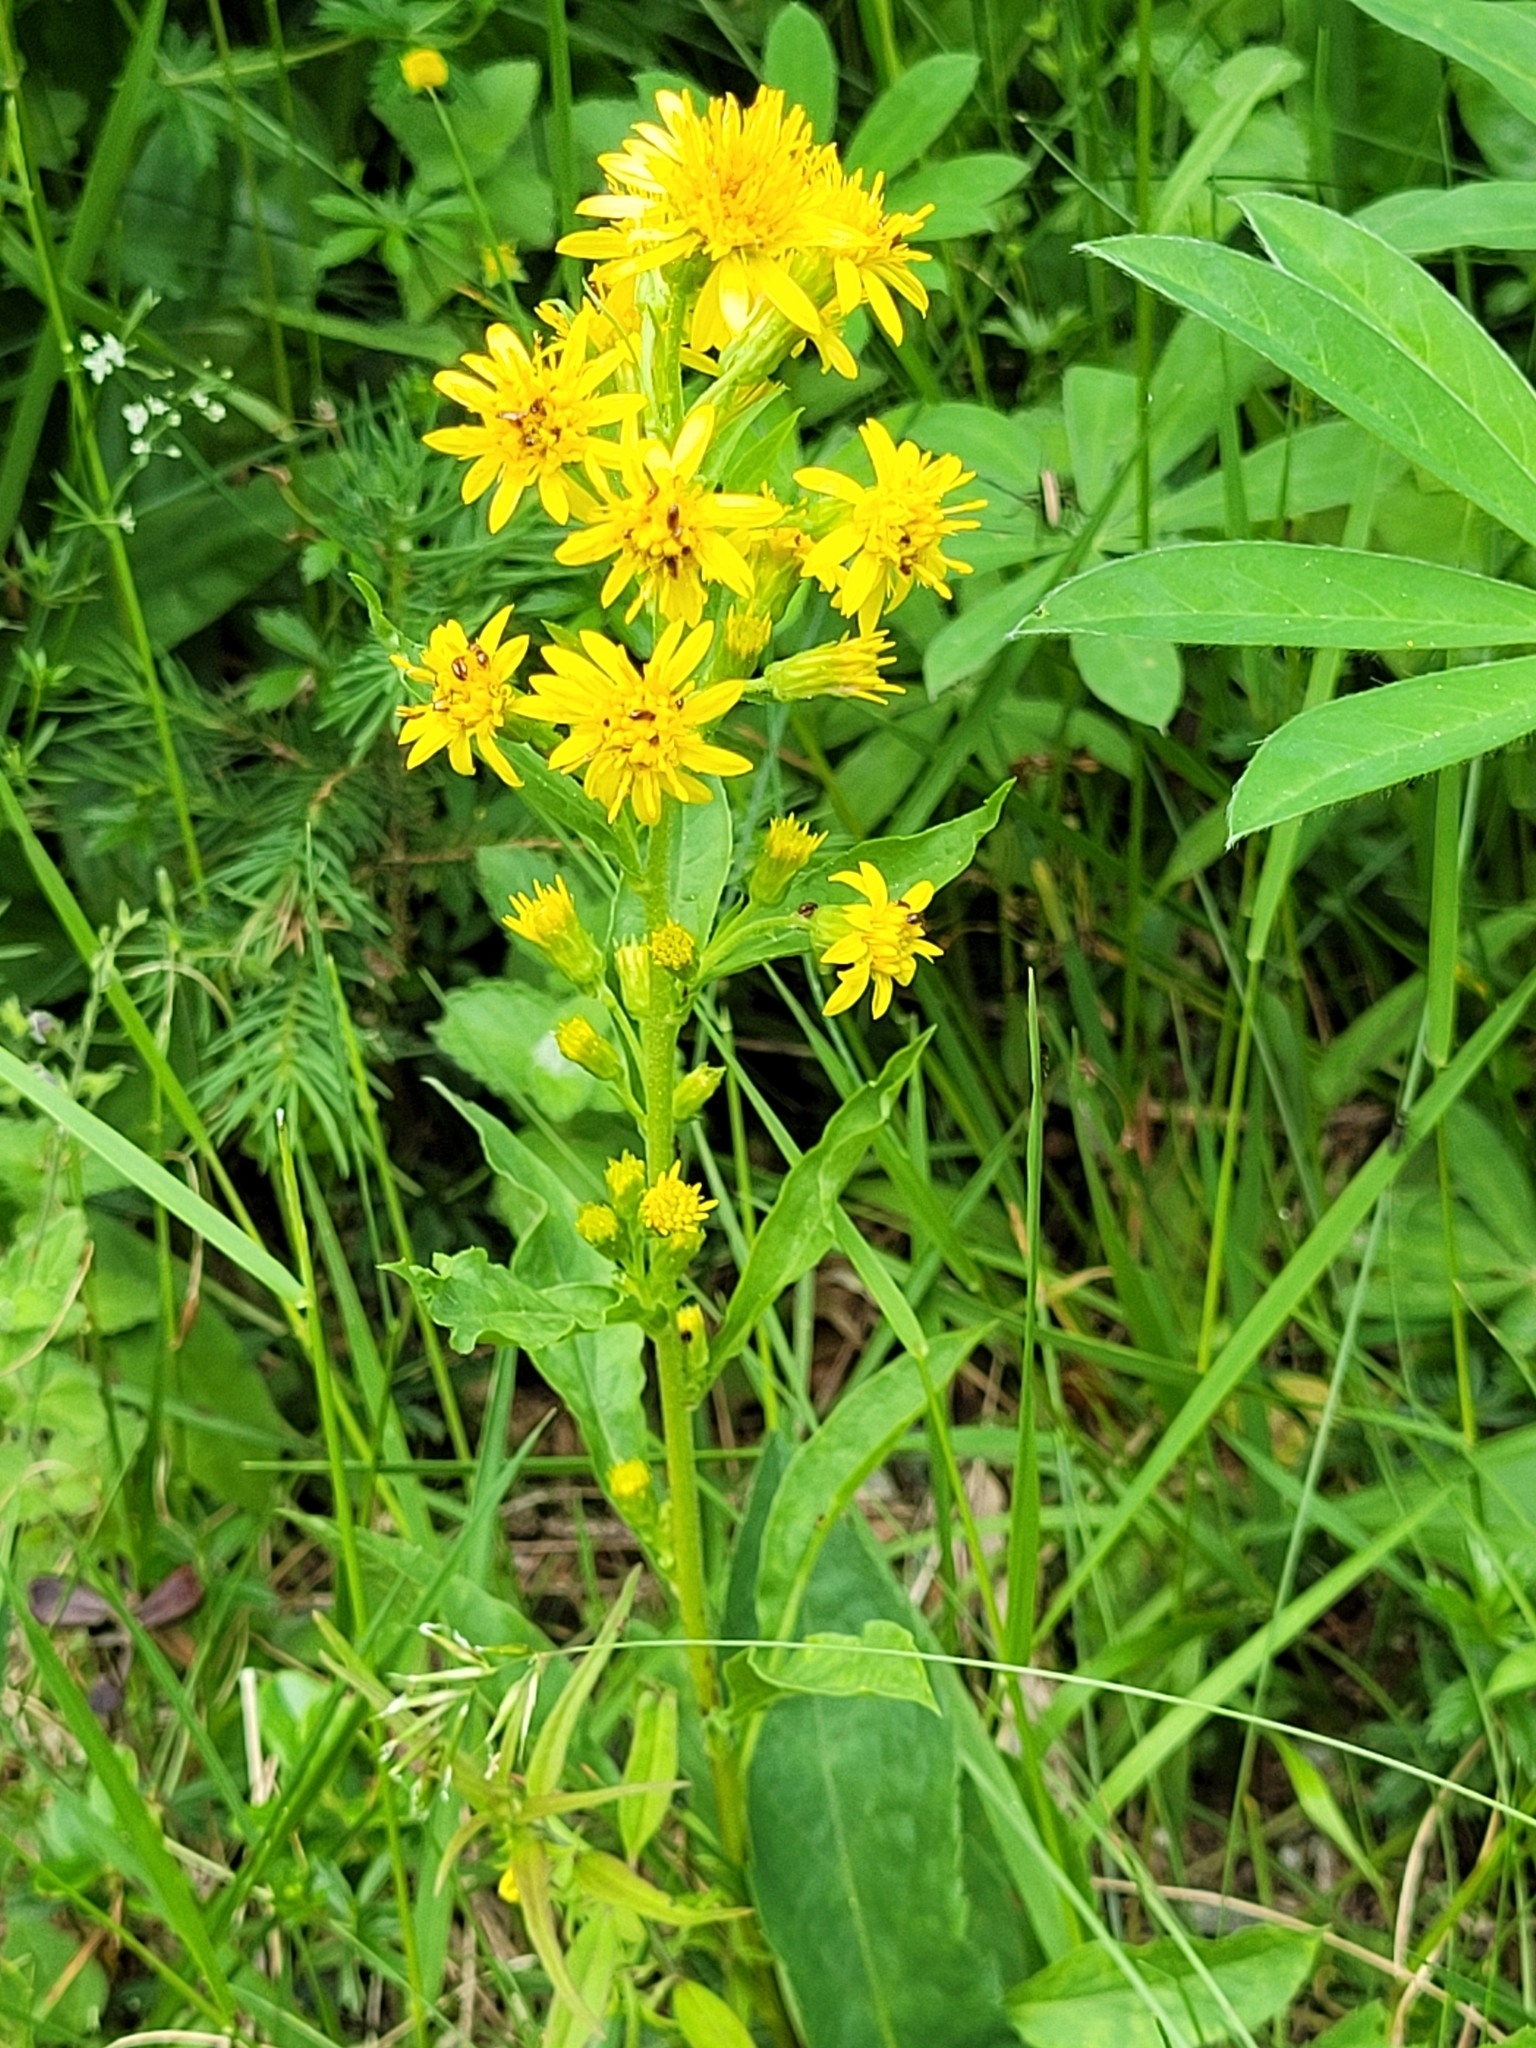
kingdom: Plantae
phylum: Tracheophyta
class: Magnoliopsida
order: Asterales
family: Asteraceae
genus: Solidago
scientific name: Solidago virgaurea
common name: Goldenrod
